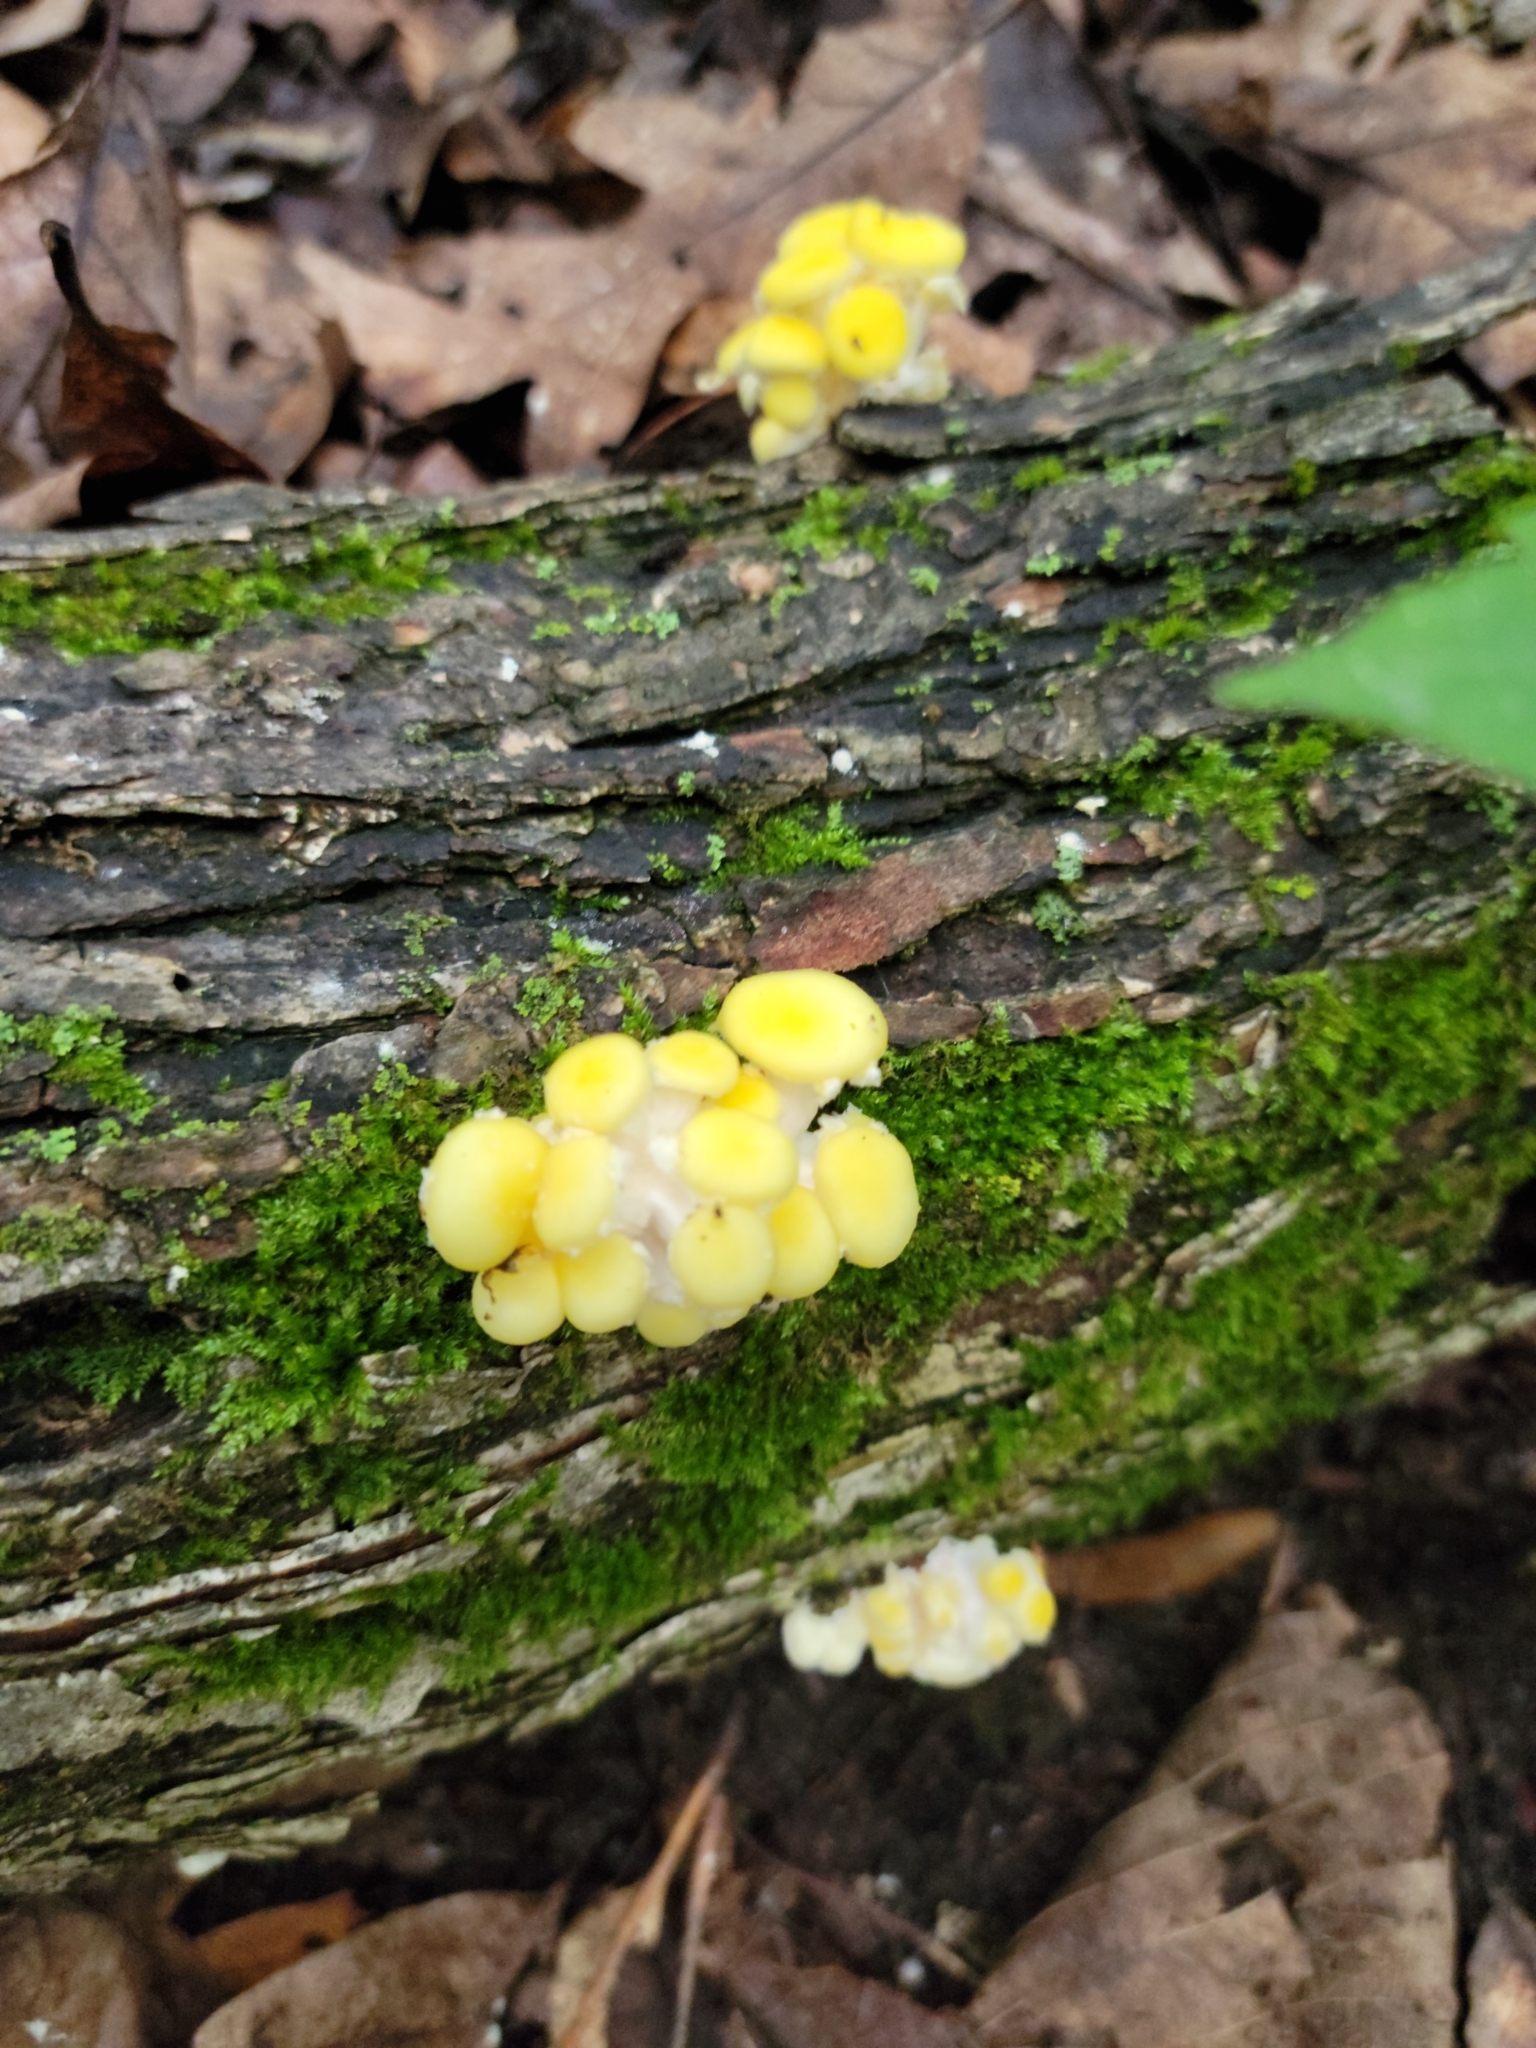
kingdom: Fungi
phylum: Basidiomycota
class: Agaricomycetes
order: Agaricales
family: Pleurotaceae
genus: Pleurotus
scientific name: Pleurotus citrinopileatus
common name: Golden oyster mushroom
